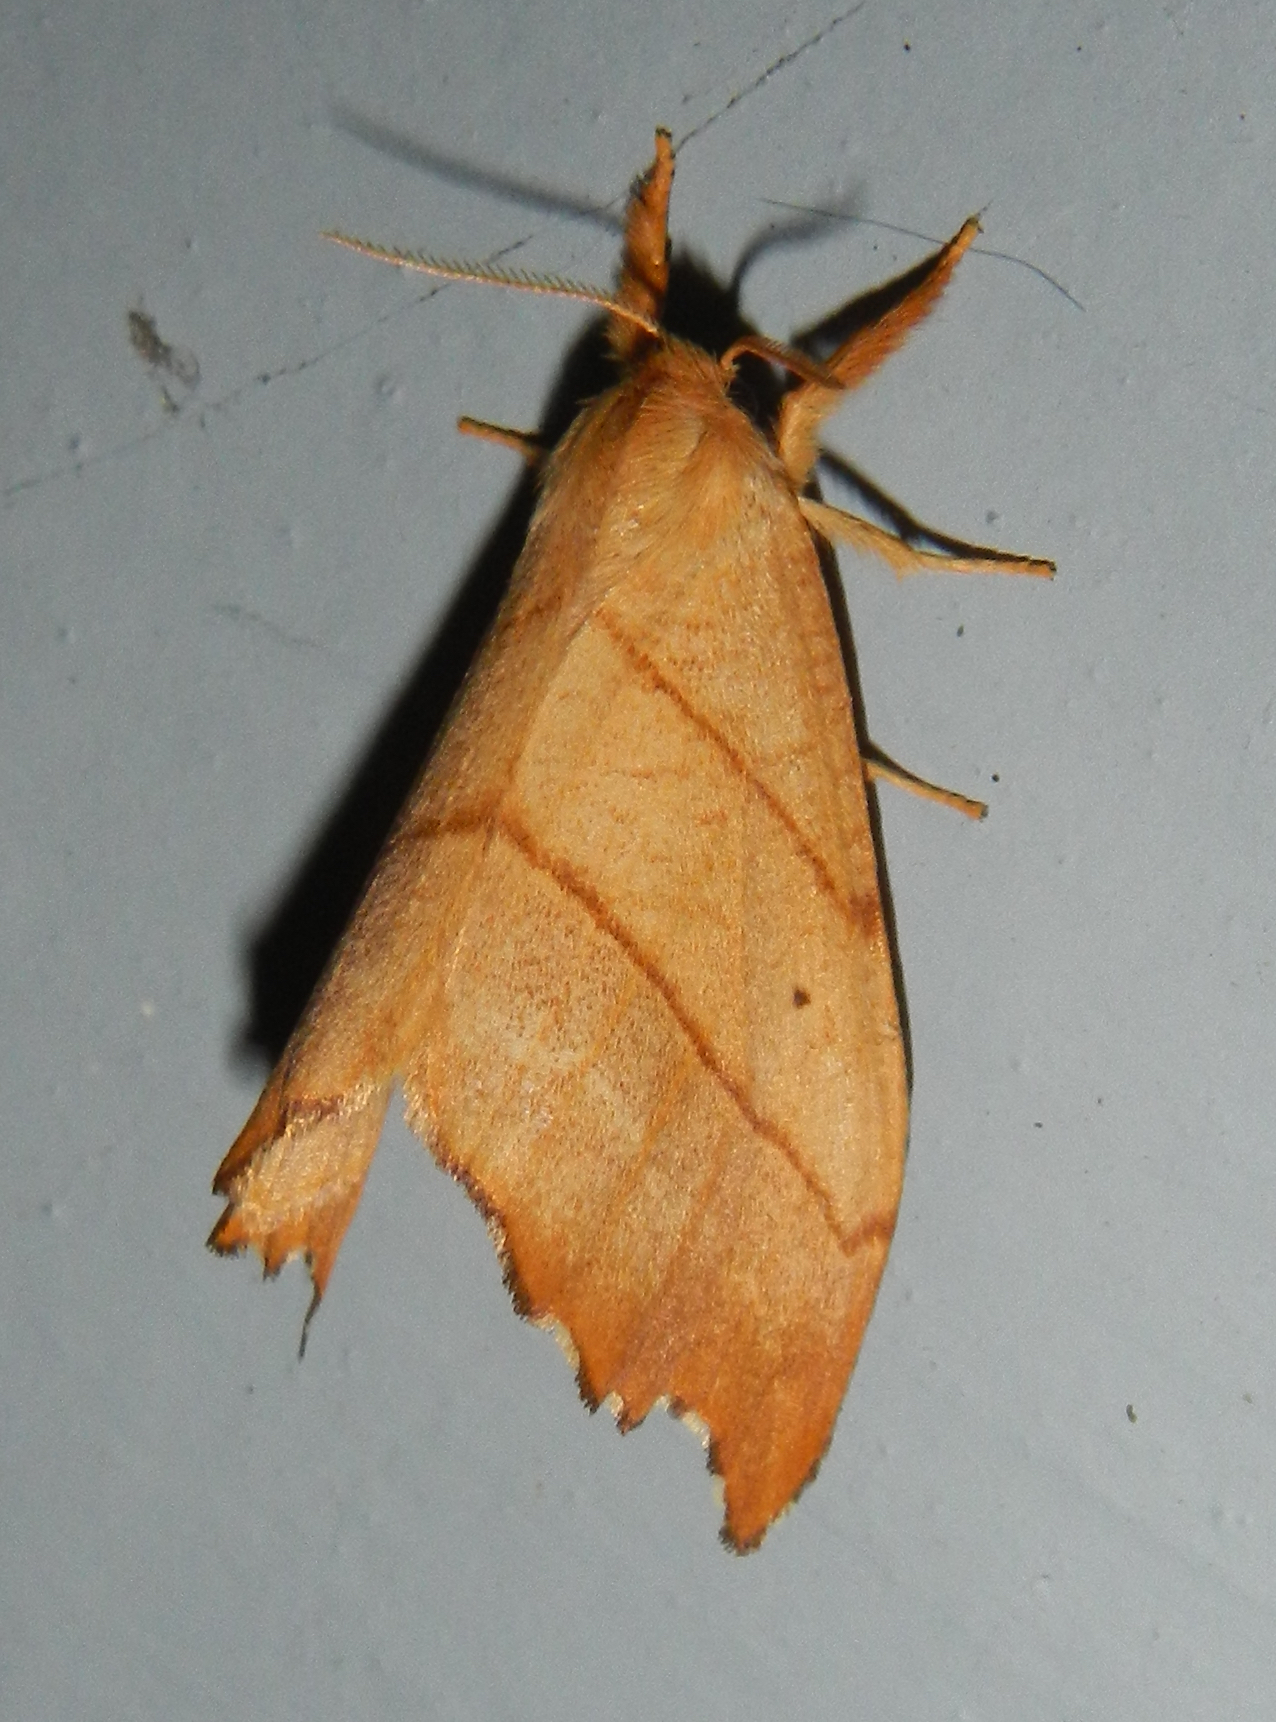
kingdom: Animalia
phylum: Arthropoda
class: Insecta
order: Lepidoptera
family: Drepanidae
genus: Falcaria
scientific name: Falcaria bilineata
